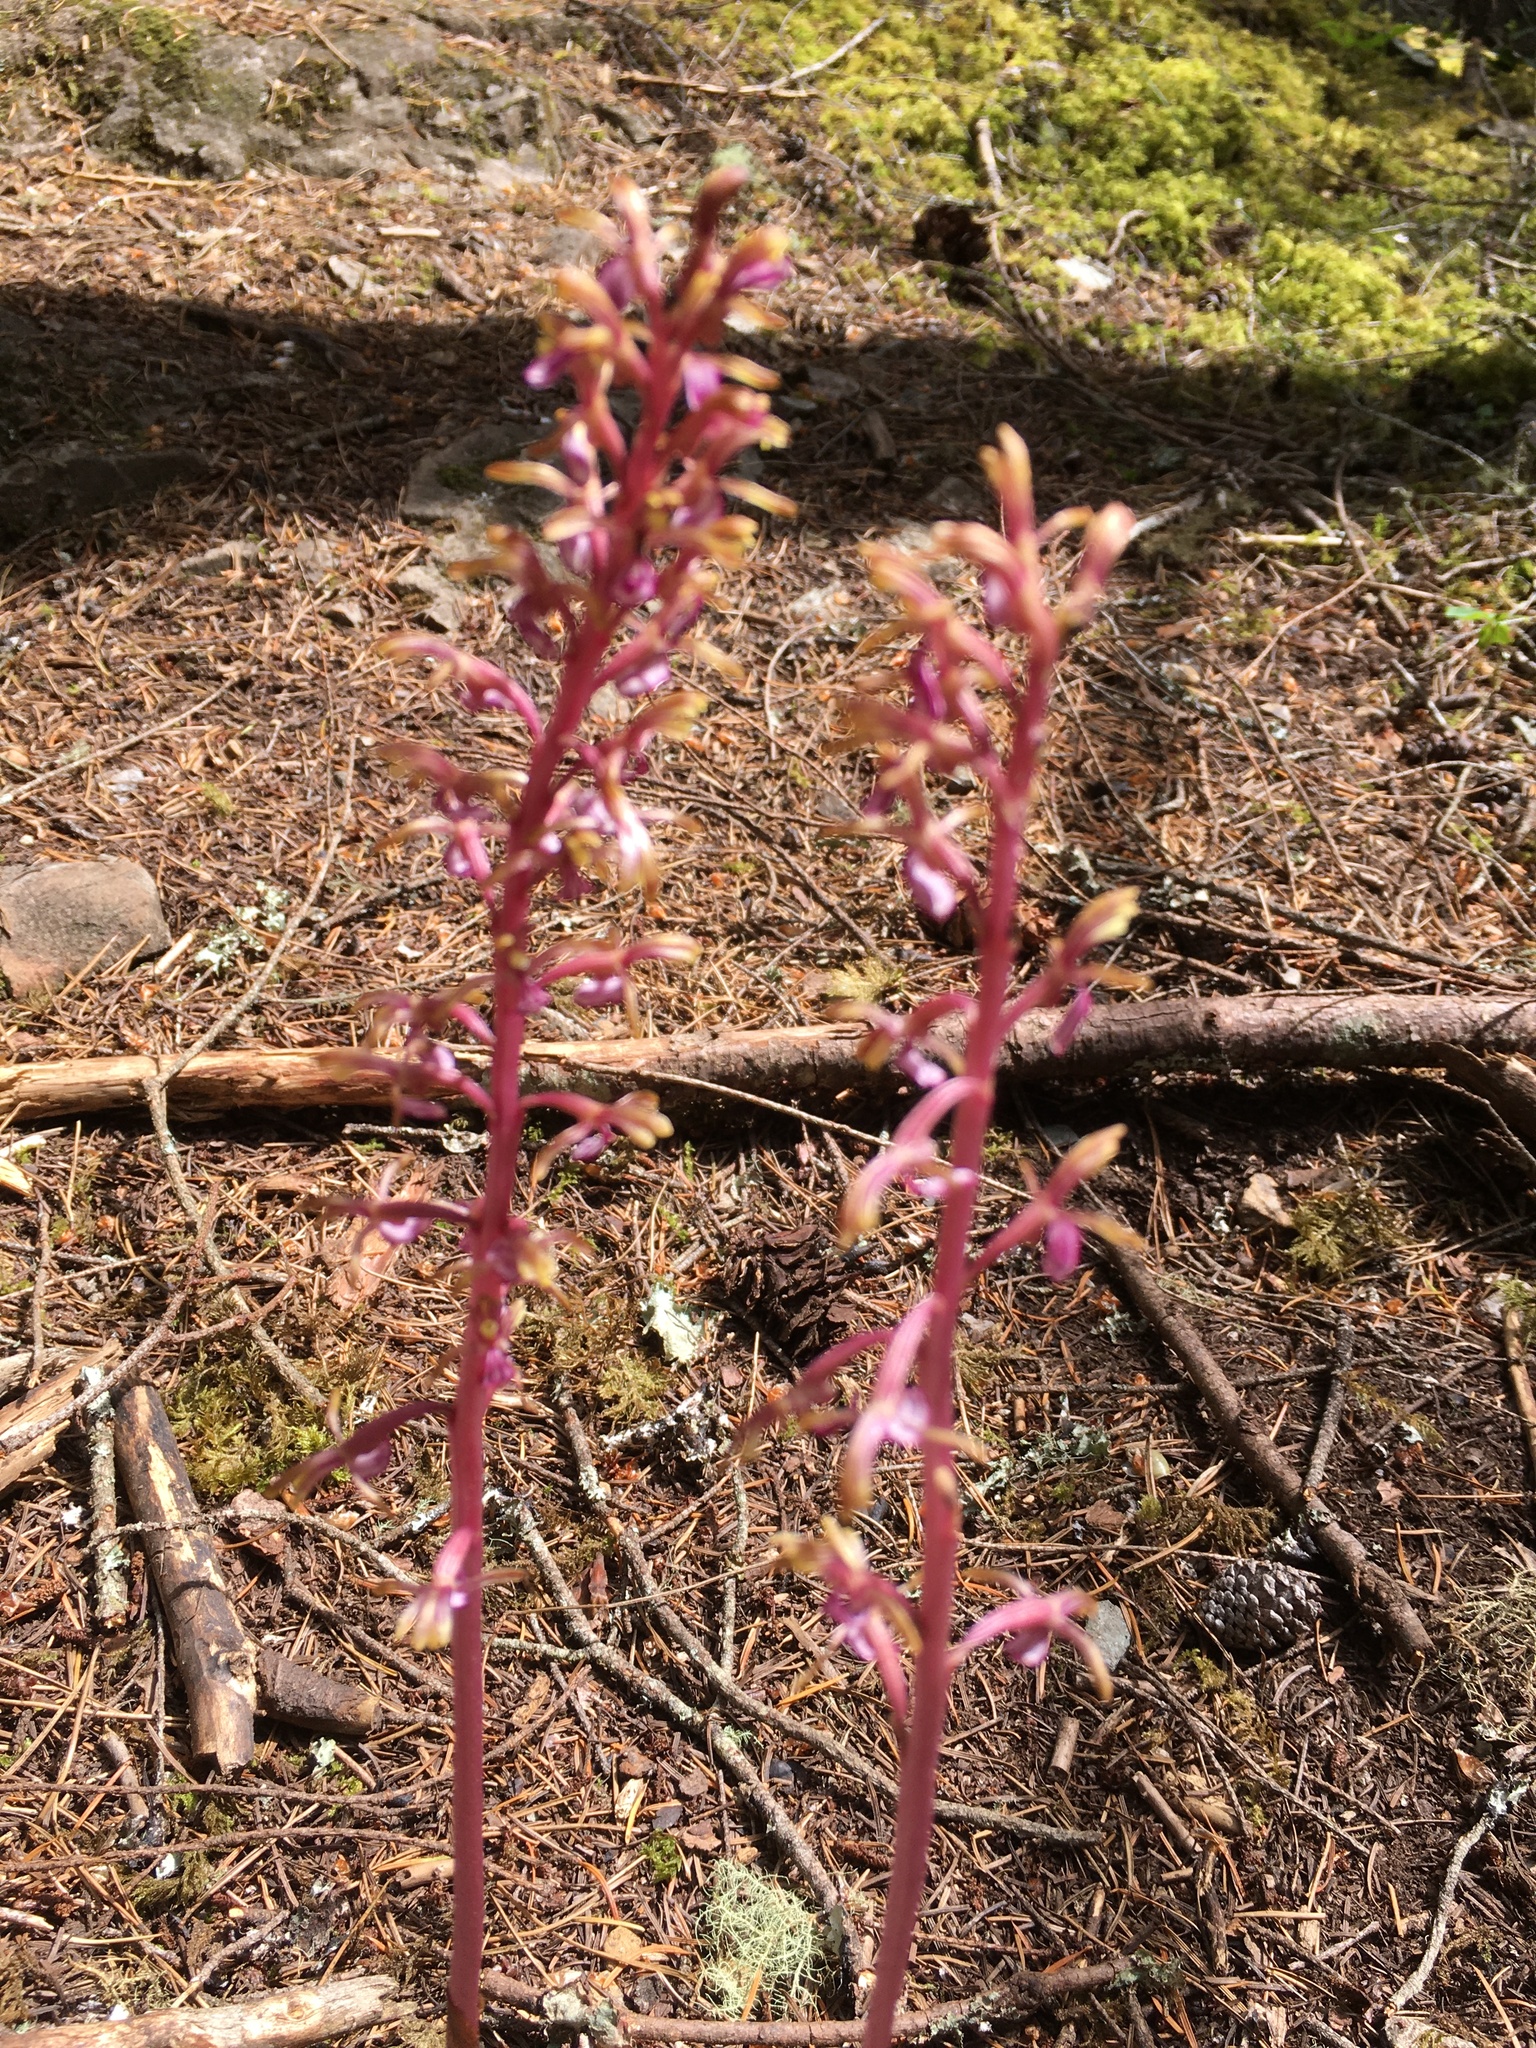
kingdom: Plantae
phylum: Tracheophyta
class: Liliopsida
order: Asparagales
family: Orchidaceae
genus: Corallorhiza
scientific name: Corallorhiza mertensiana
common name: Pacific coralroot
